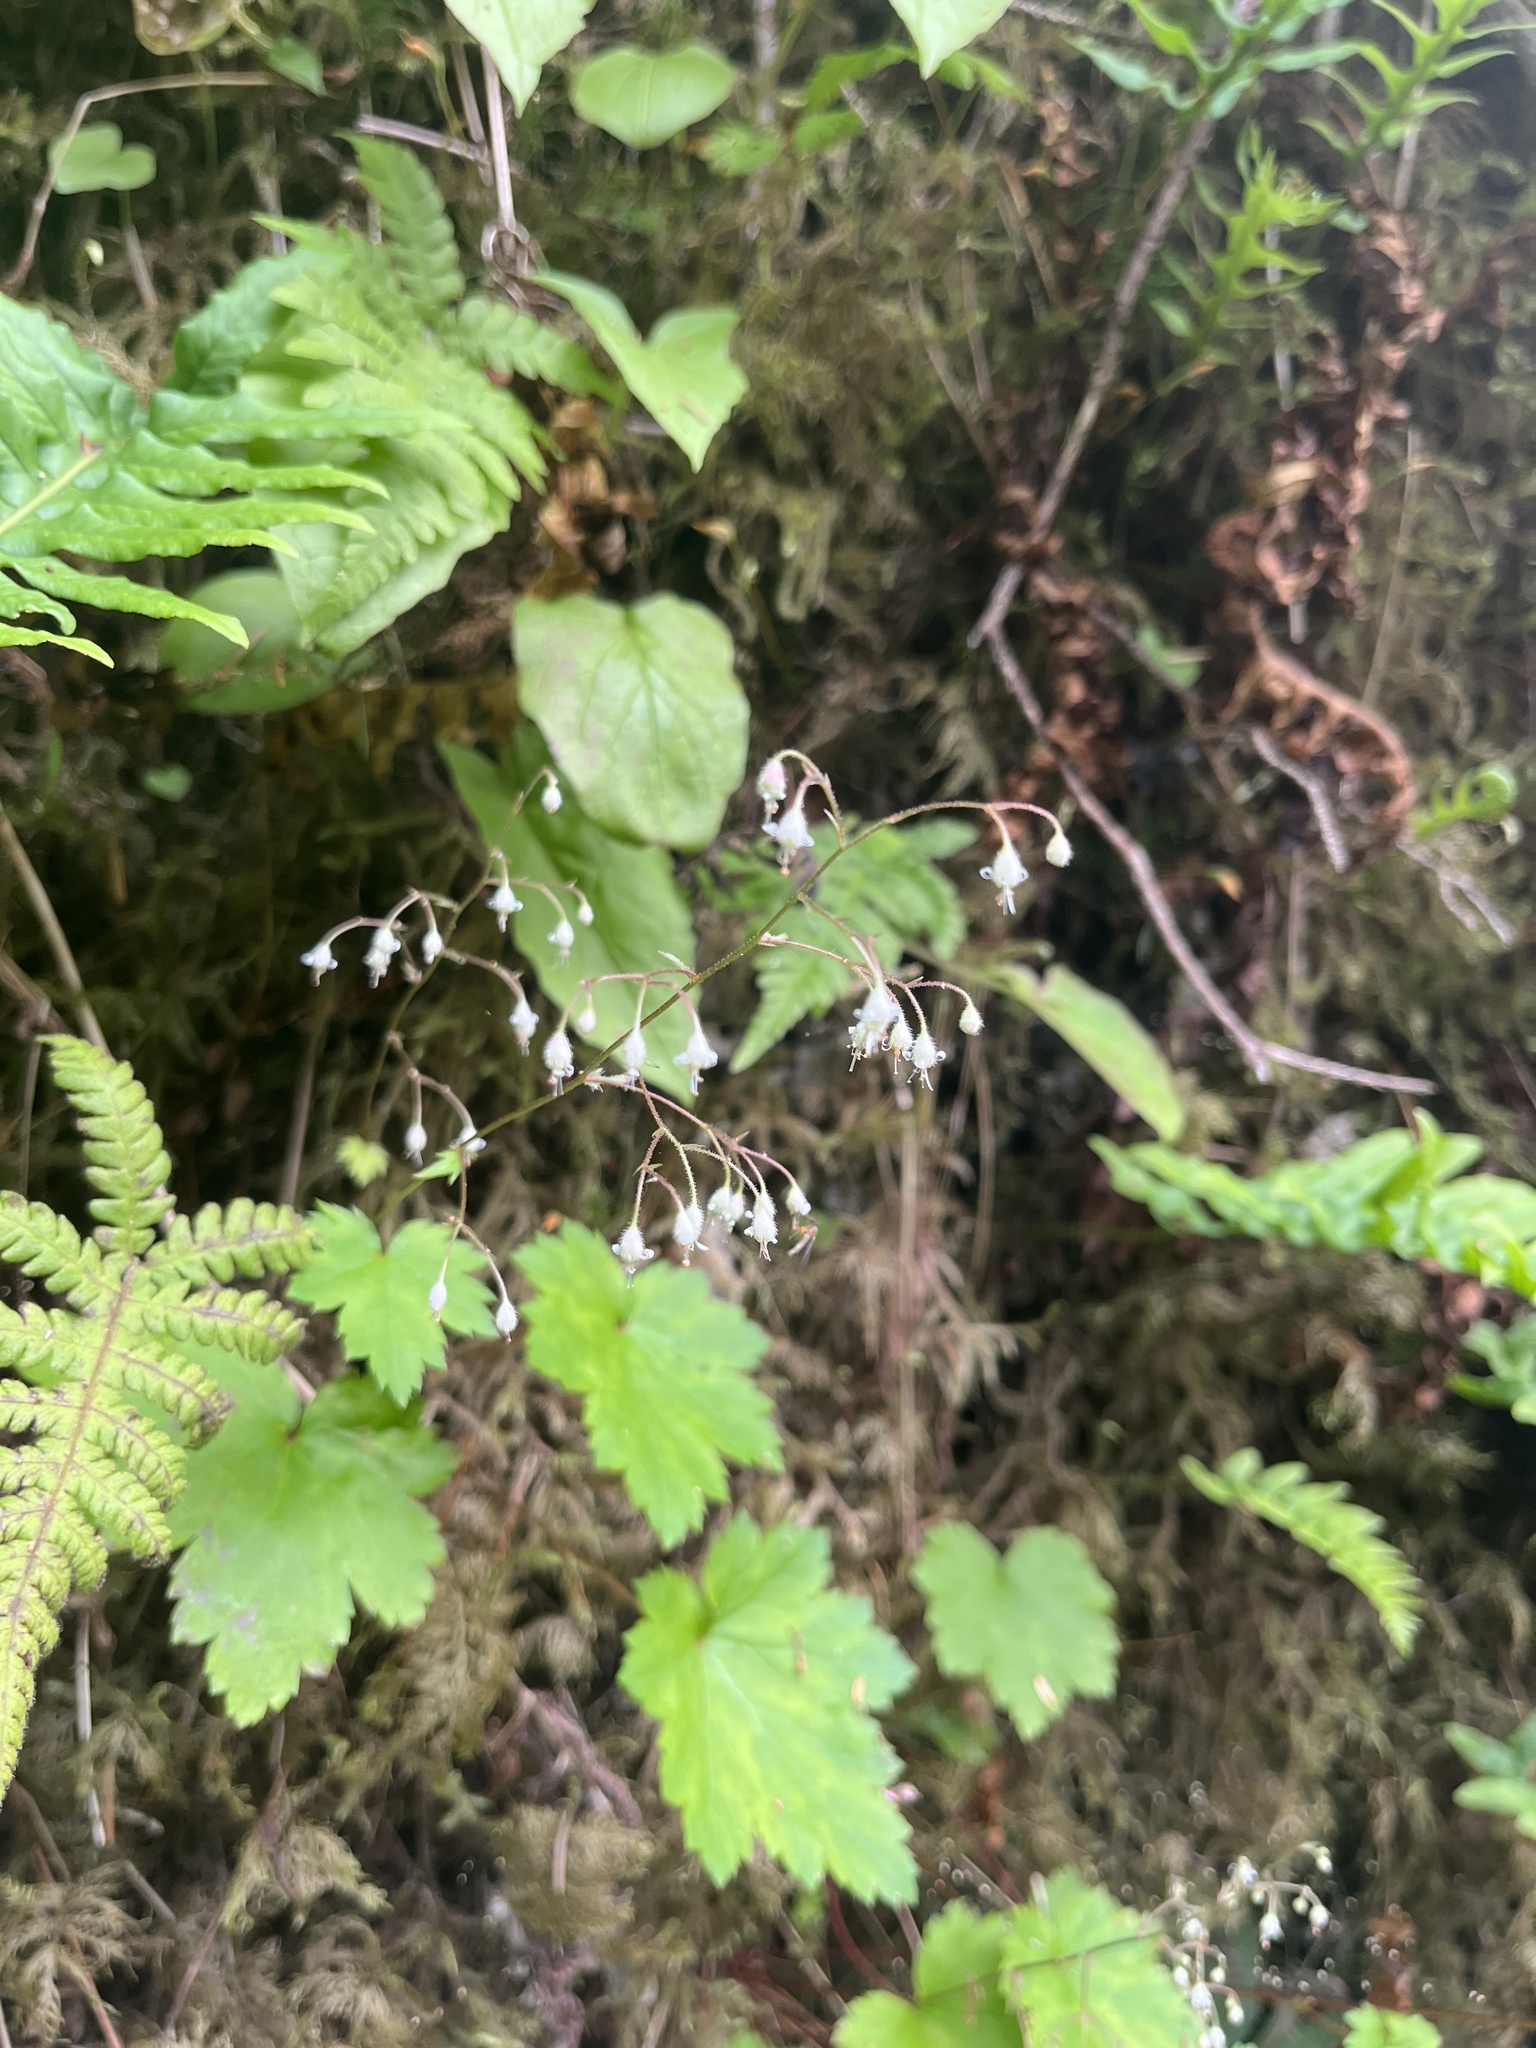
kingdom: Plantae
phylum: Tracheophyta
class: Magnoliopsida
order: Saxifragales
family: Saxifragaceae
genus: Heuchera
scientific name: Heuchera glabra
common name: Alpine alumroot
